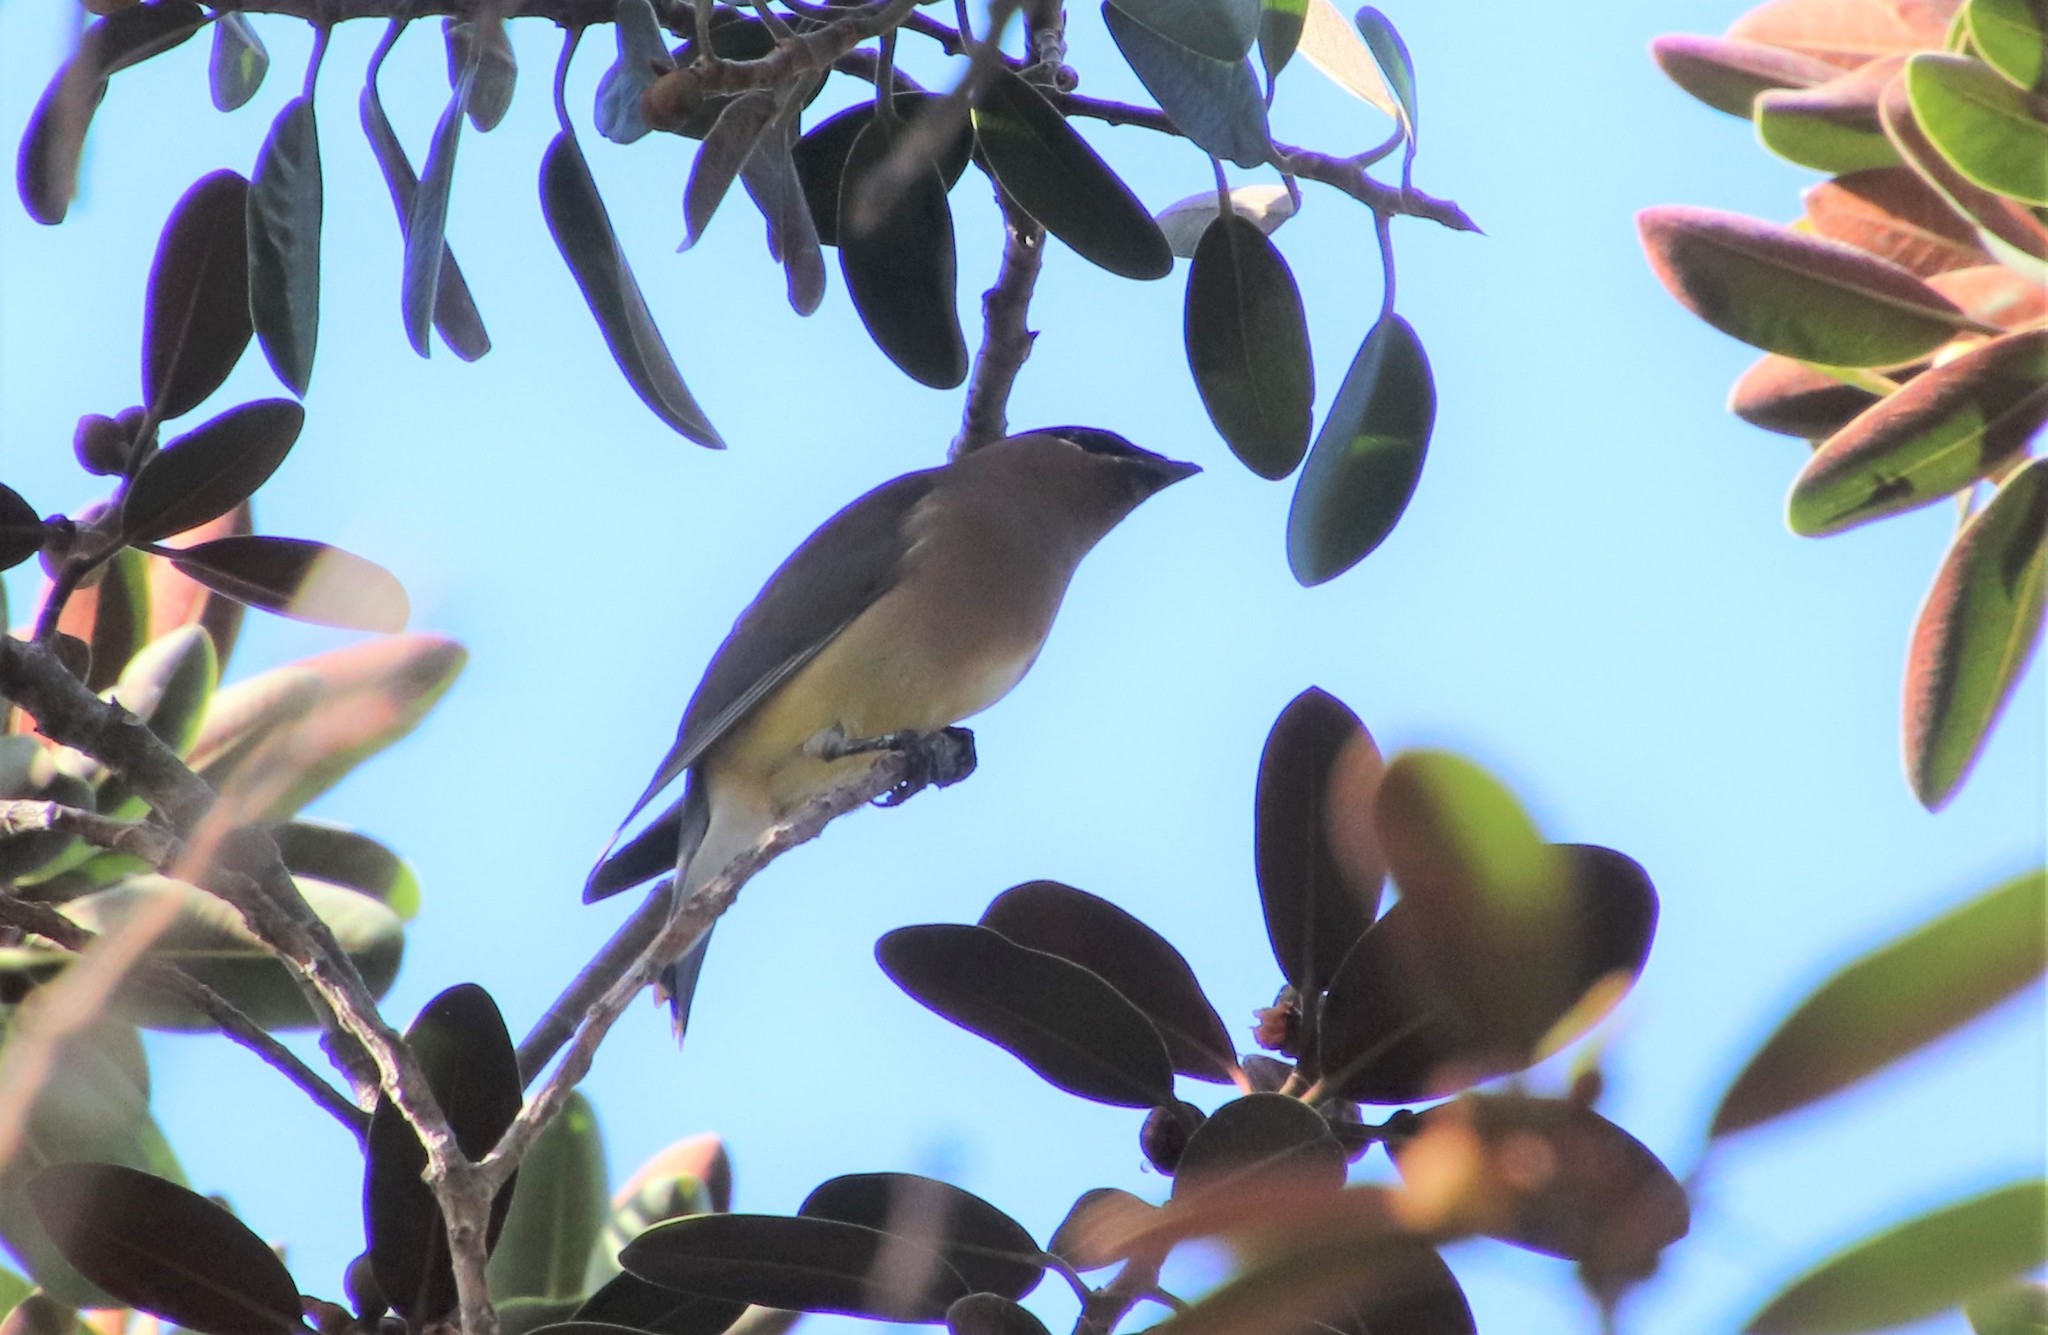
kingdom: Animalia
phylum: Chordata
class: Aves
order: Passeriformes
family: Bombycillidae
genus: Bombycilla
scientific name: Bombycilla cedrorum
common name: Cedar waxwing
